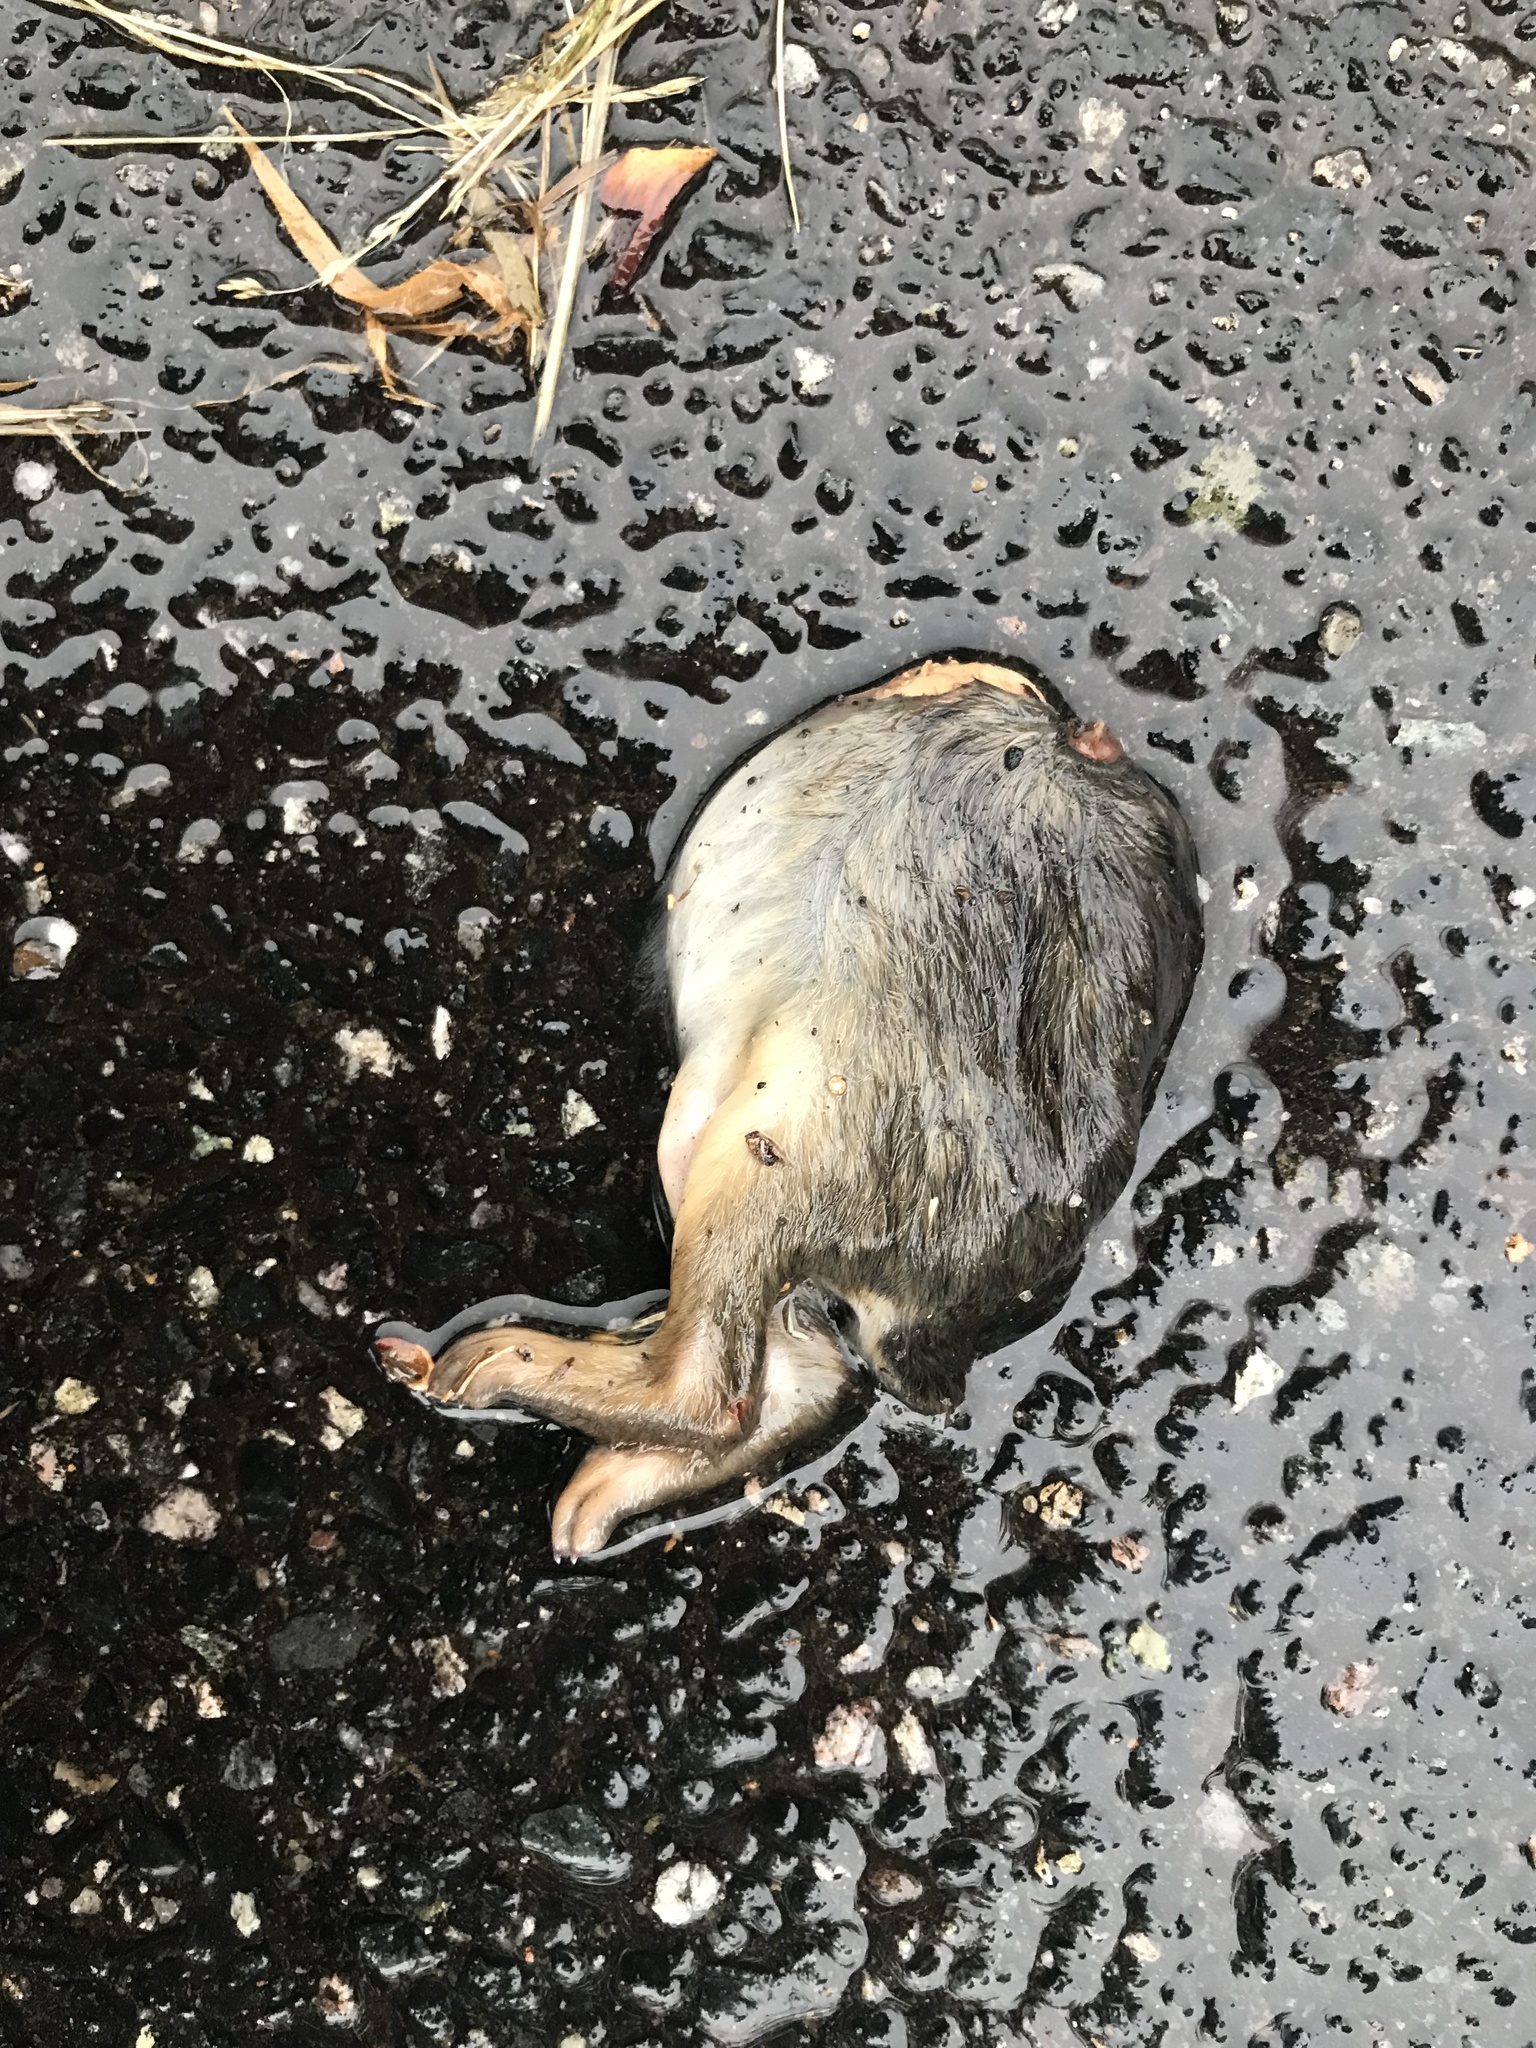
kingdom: Animalia
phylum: Chordata
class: Mammalia
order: Lagomorpha
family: Leporidae
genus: Sylvilagus
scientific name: Sylvilagus floridanus
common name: Eastern cottontail
